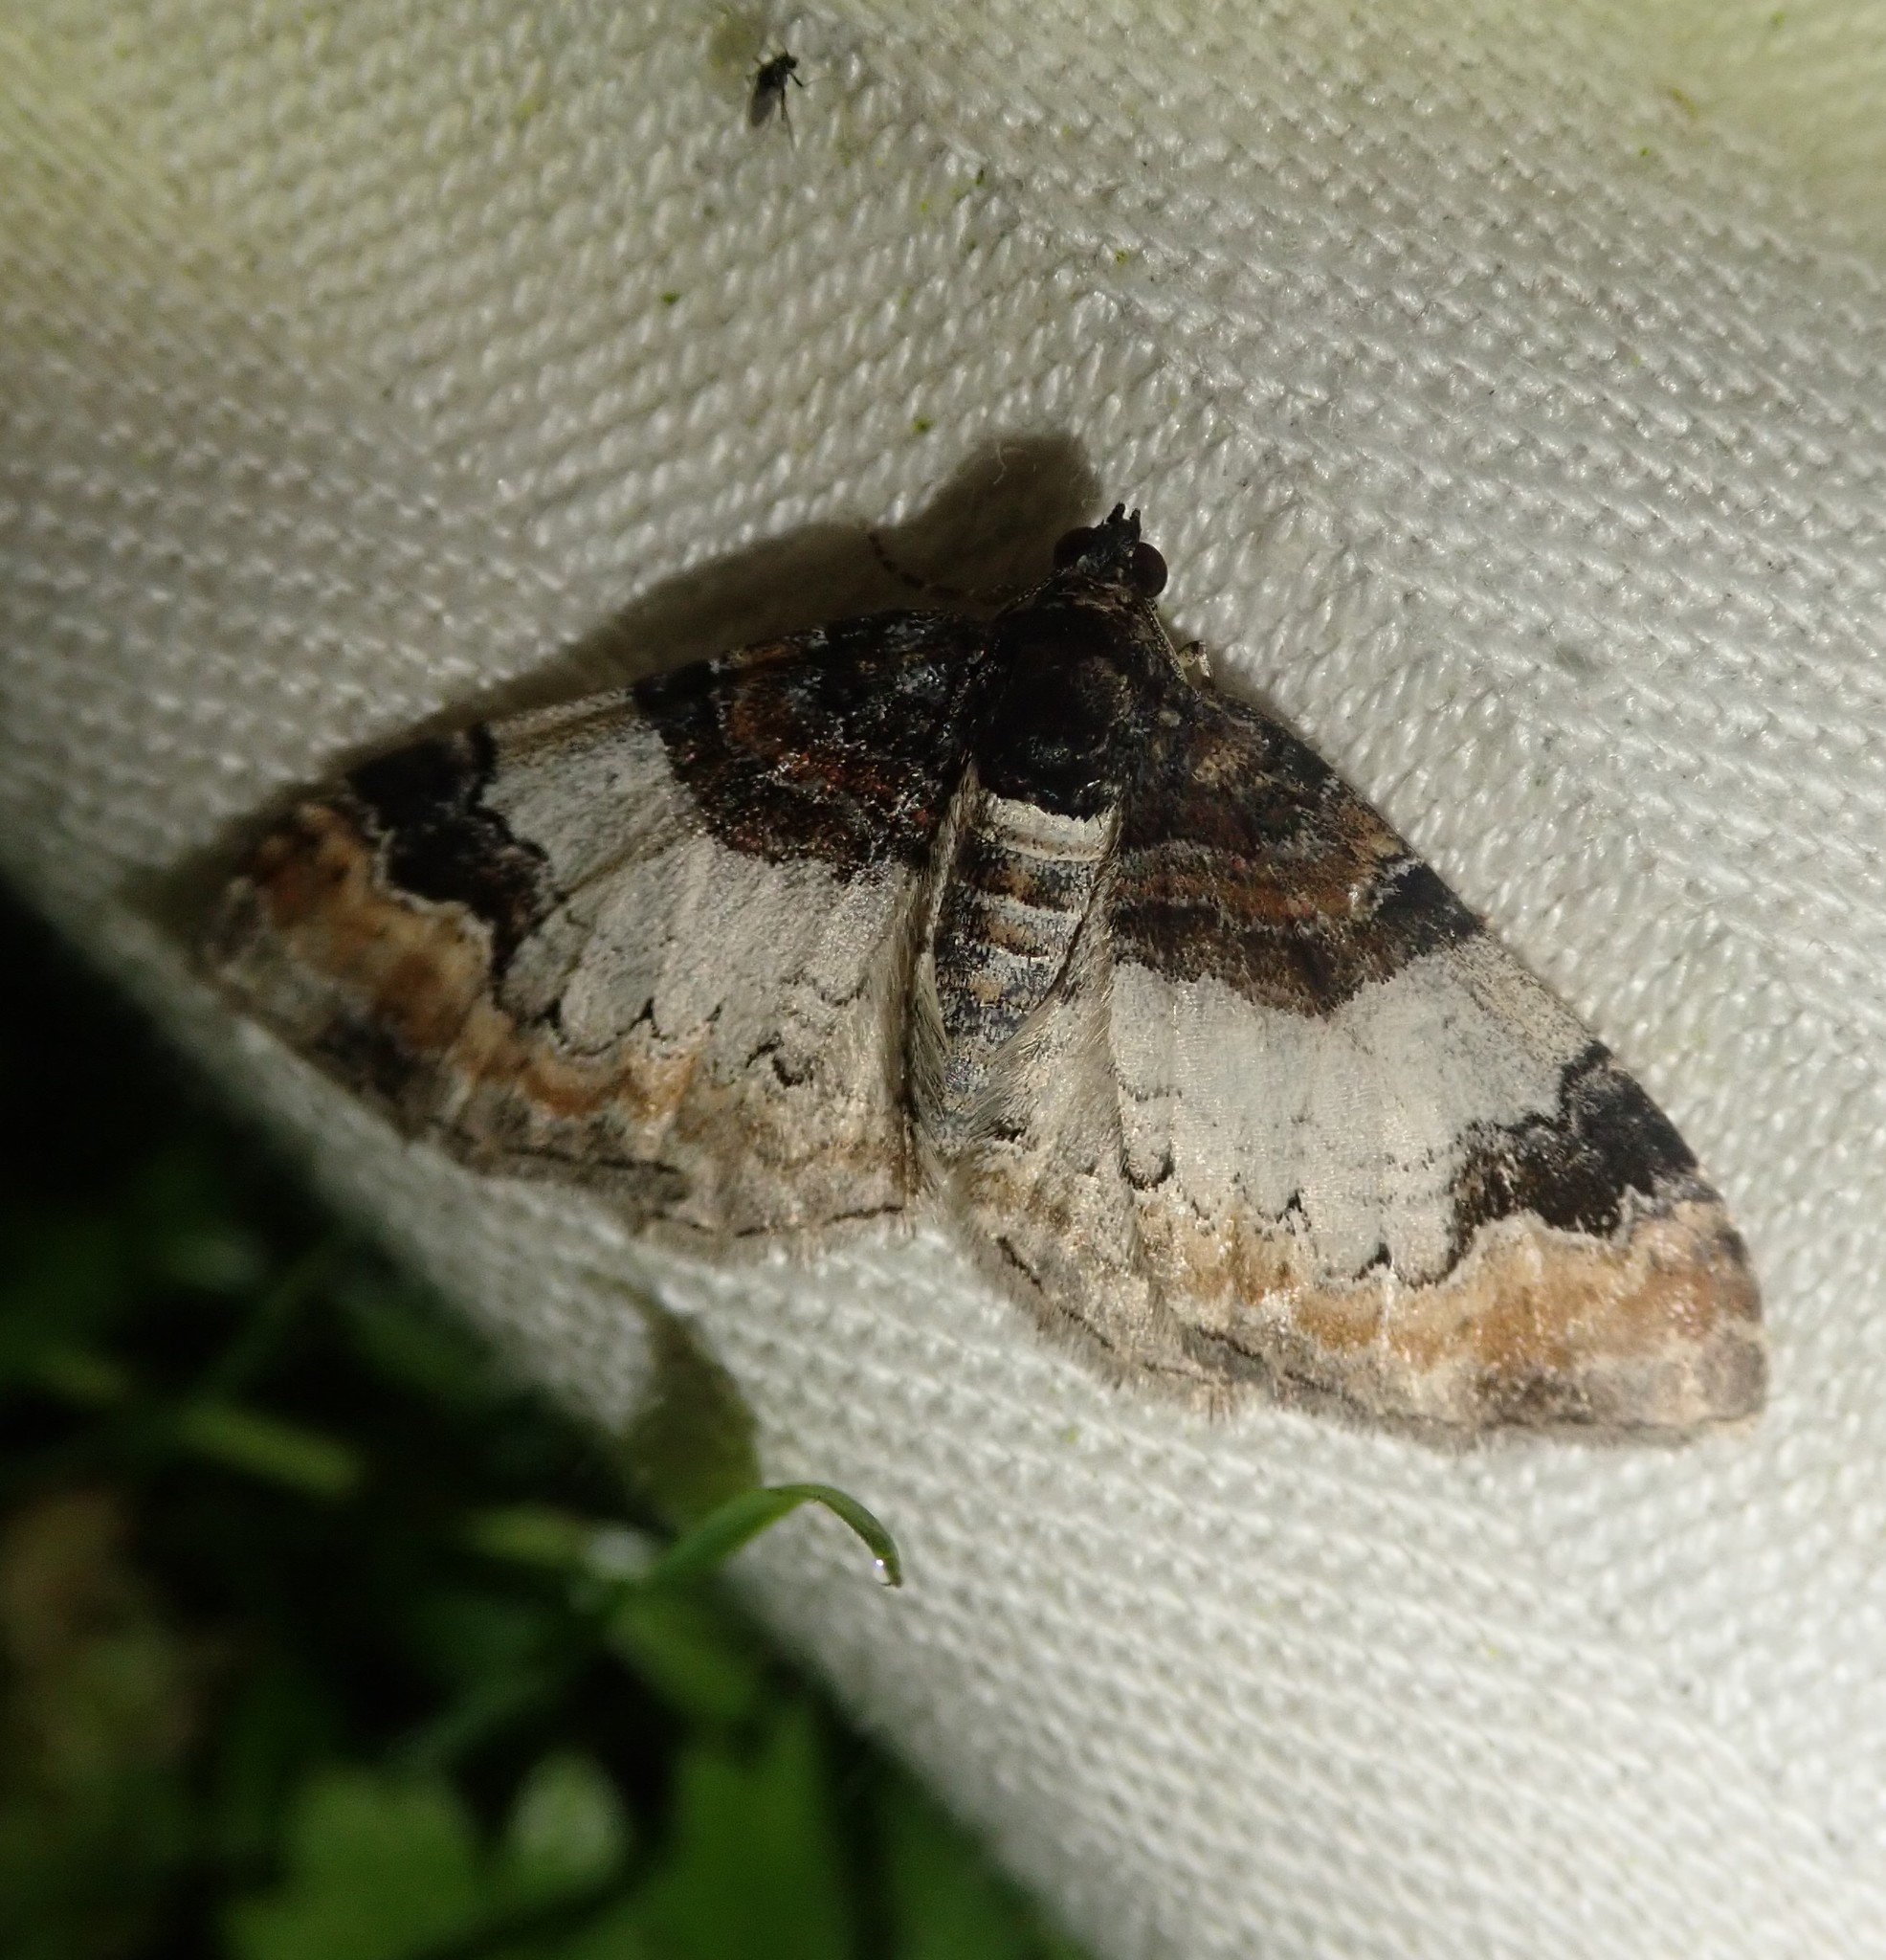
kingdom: Animalia
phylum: Arthropoda
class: Insecta
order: Lepidoptera
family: Geometridae
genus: Catarhoe
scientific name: Catarhoe cuculata
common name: Royal mantle
